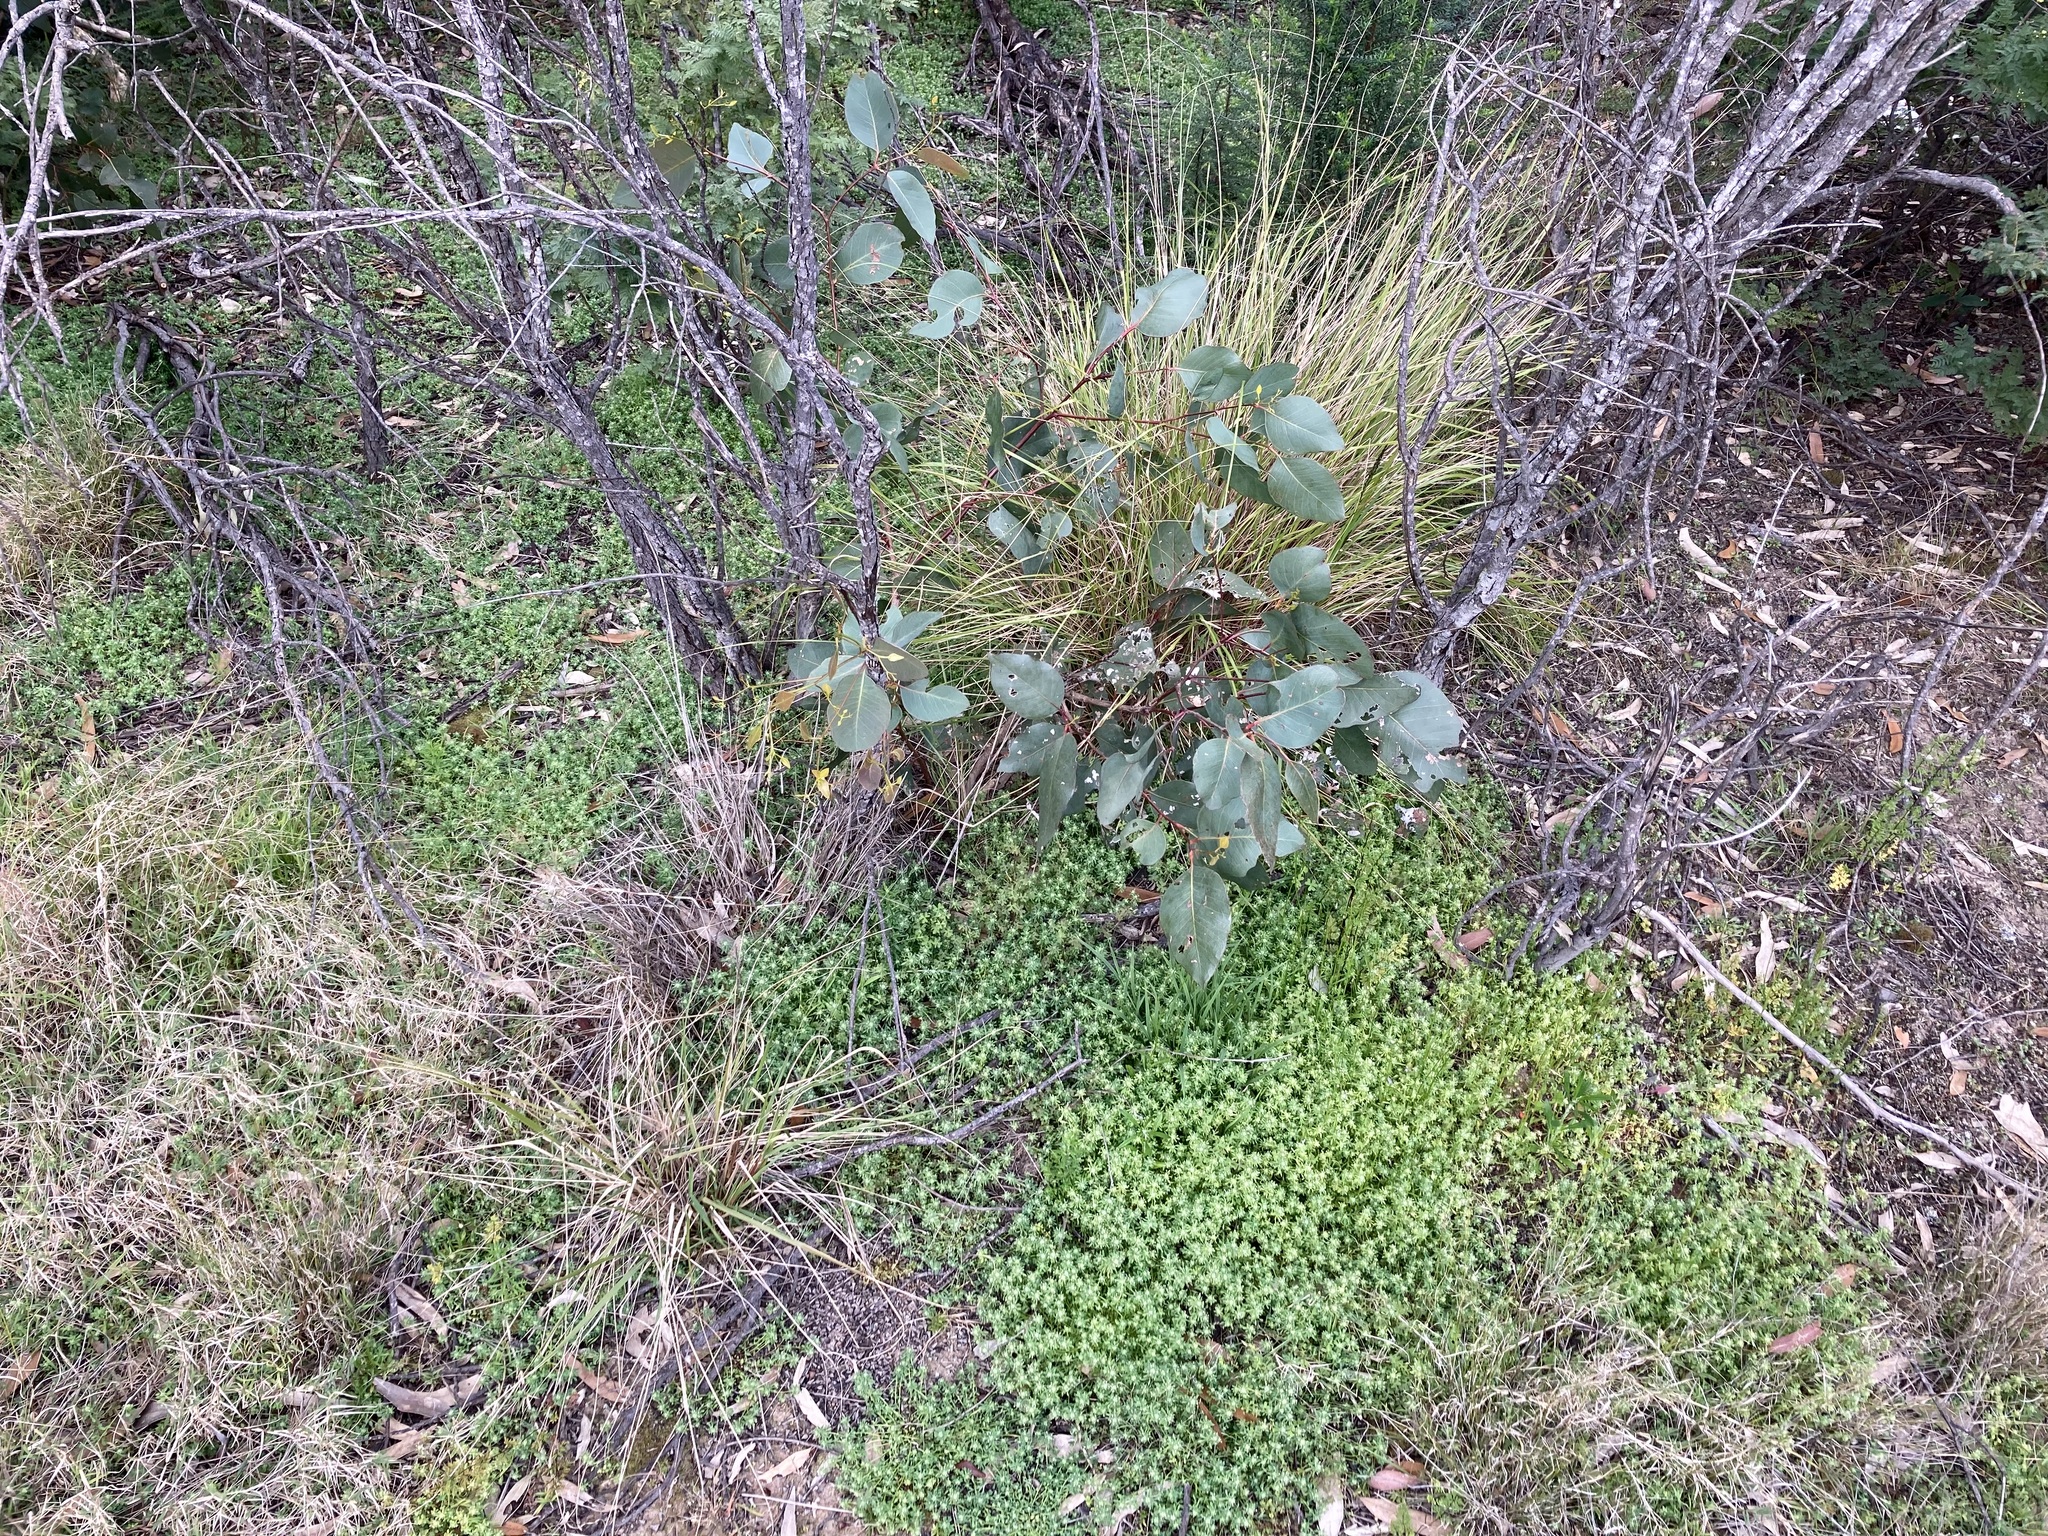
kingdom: Plantae
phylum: Tracheophyta
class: Magnoliopsida
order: Malpighiales
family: Phyllanthaceae
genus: Poranthera
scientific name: Poranthera microphylla
